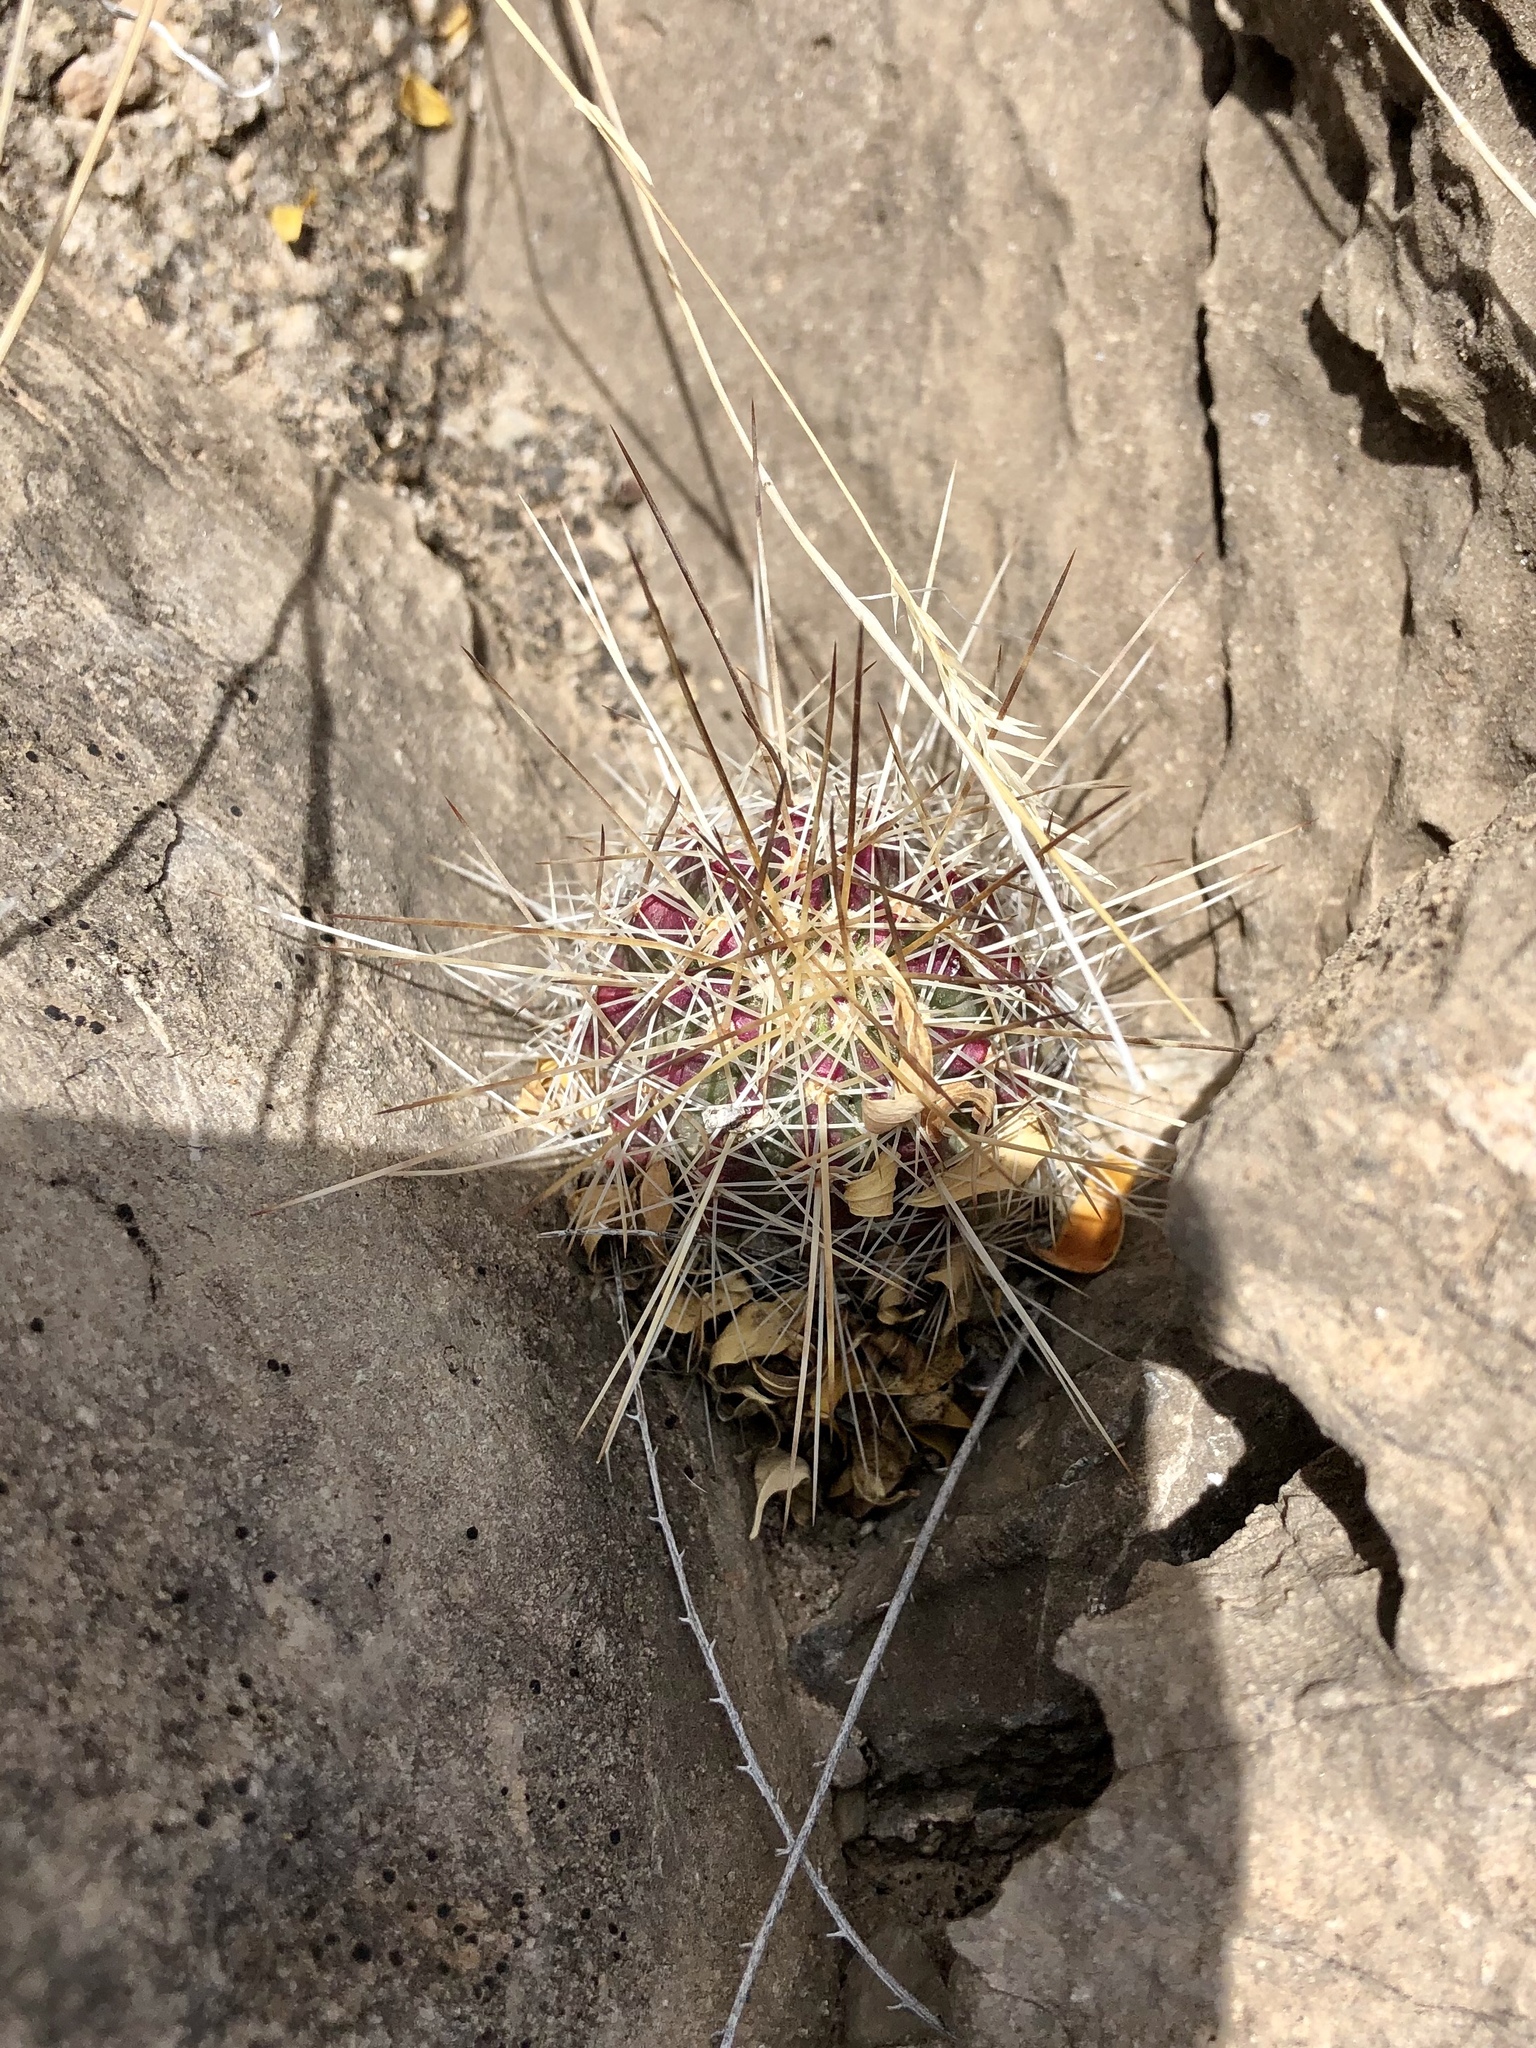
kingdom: Plantae
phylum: Tracheophyta
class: Magnoliopsida
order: Caryophyllales
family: Cactaceae
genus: Echinocereus
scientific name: Echinocereus stramineus
